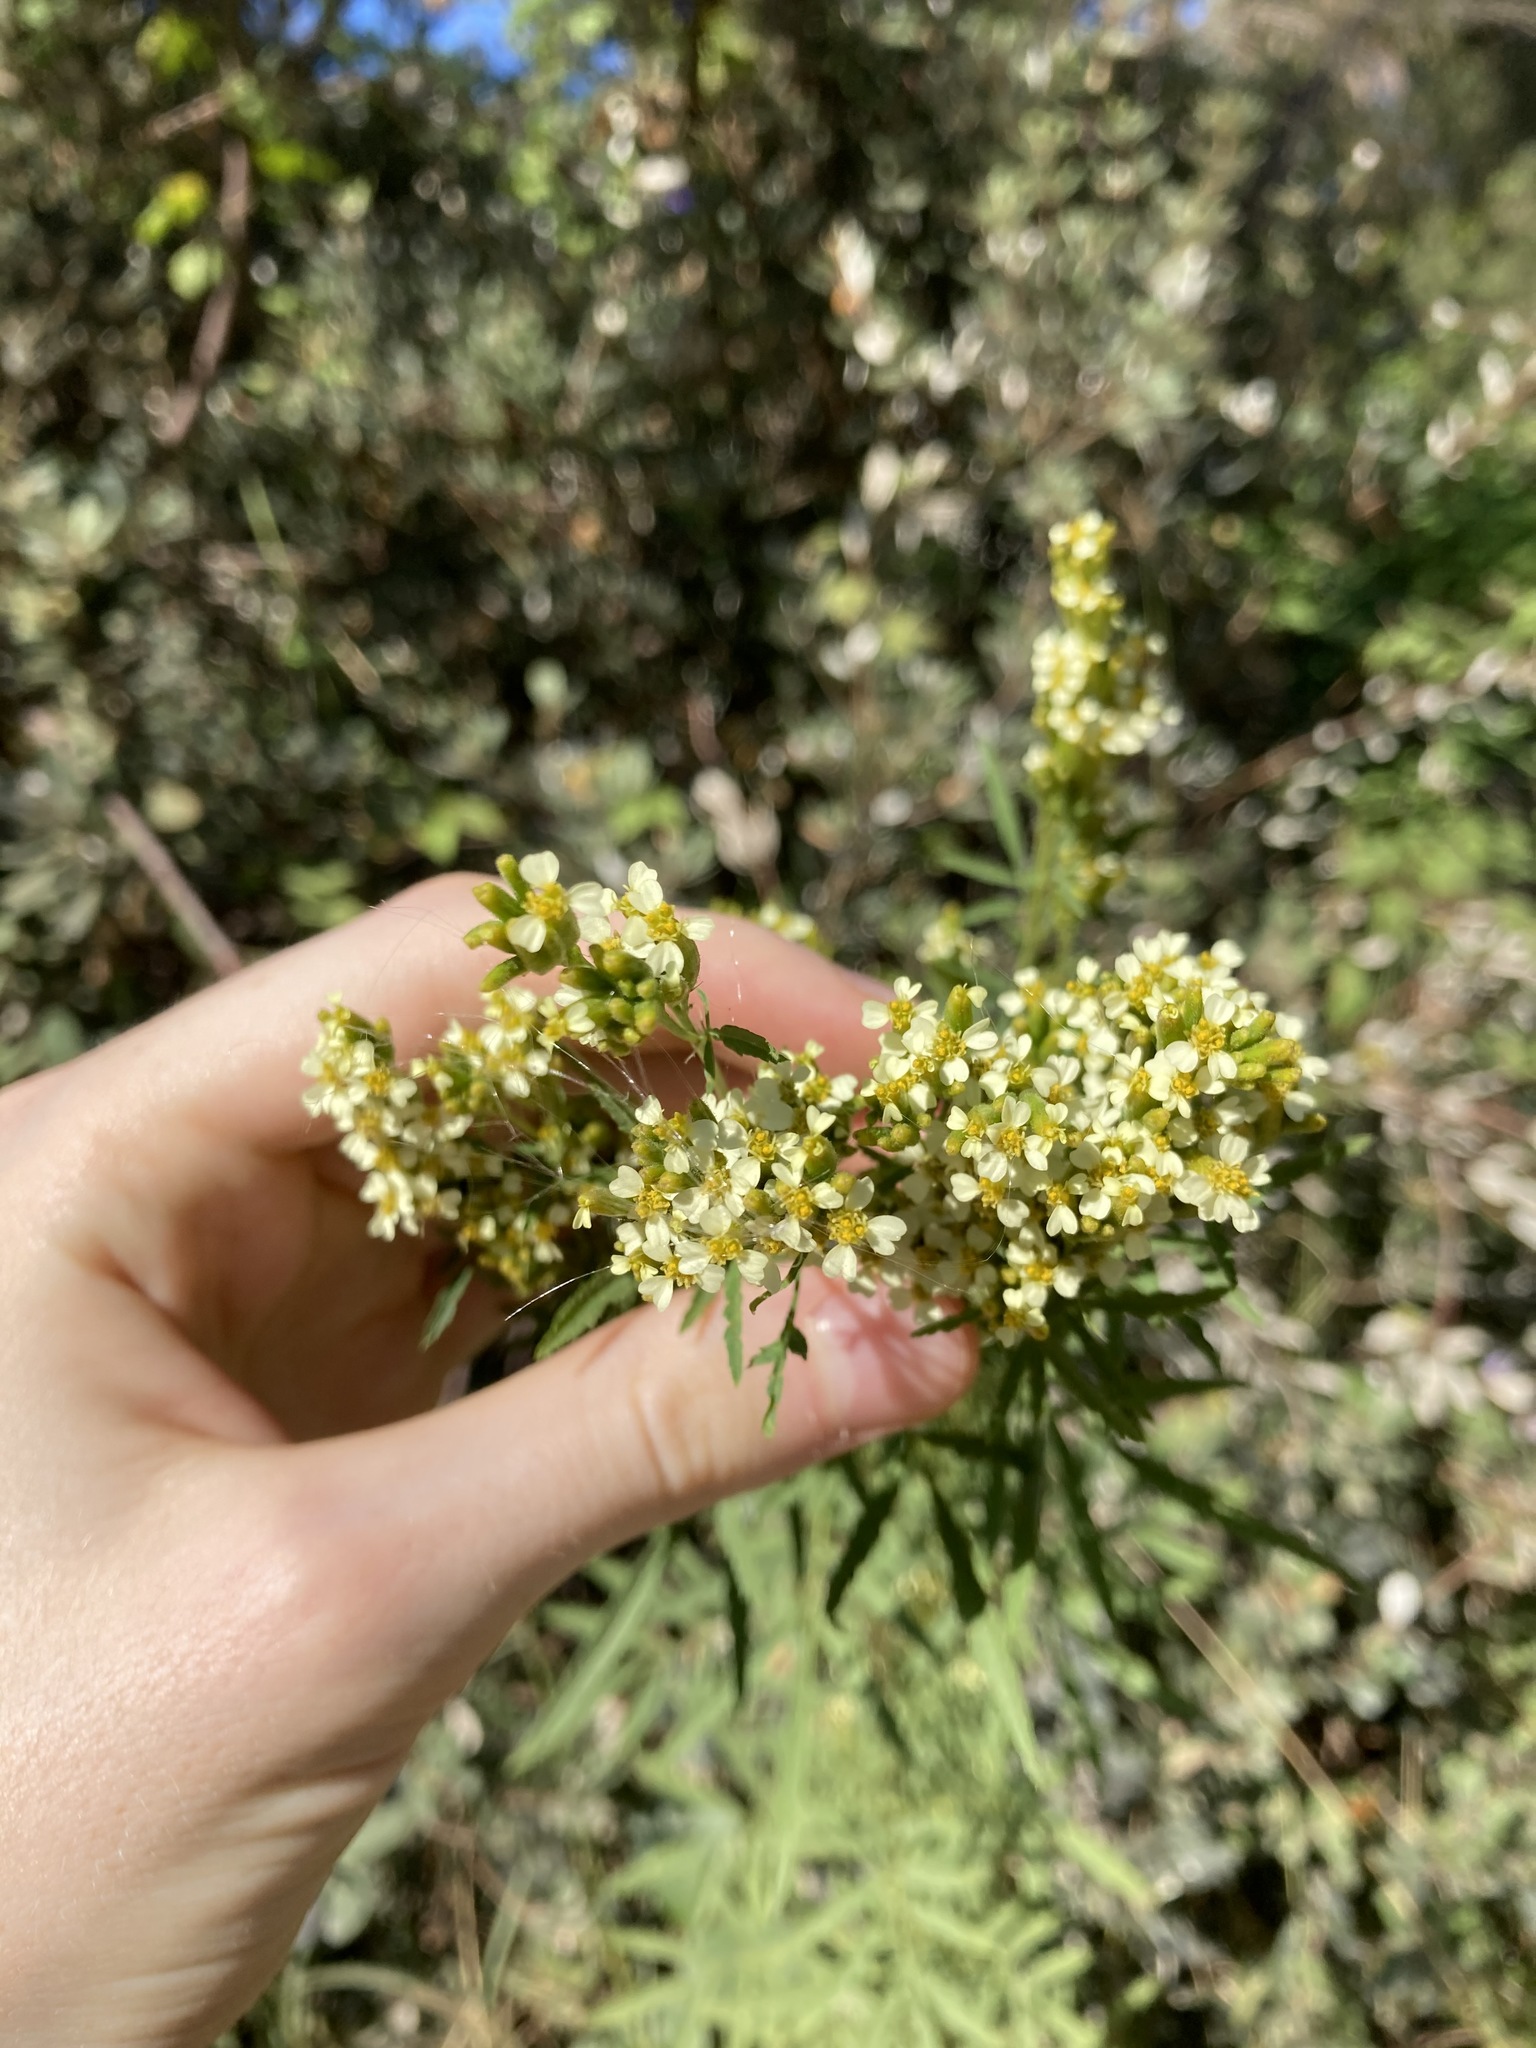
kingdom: Plantae
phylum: Tracheophyta
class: Magnoliopsida
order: Asterales
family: Asteraceae
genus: Tagetes
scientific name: Tagetes minuta
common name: Muster john henry
